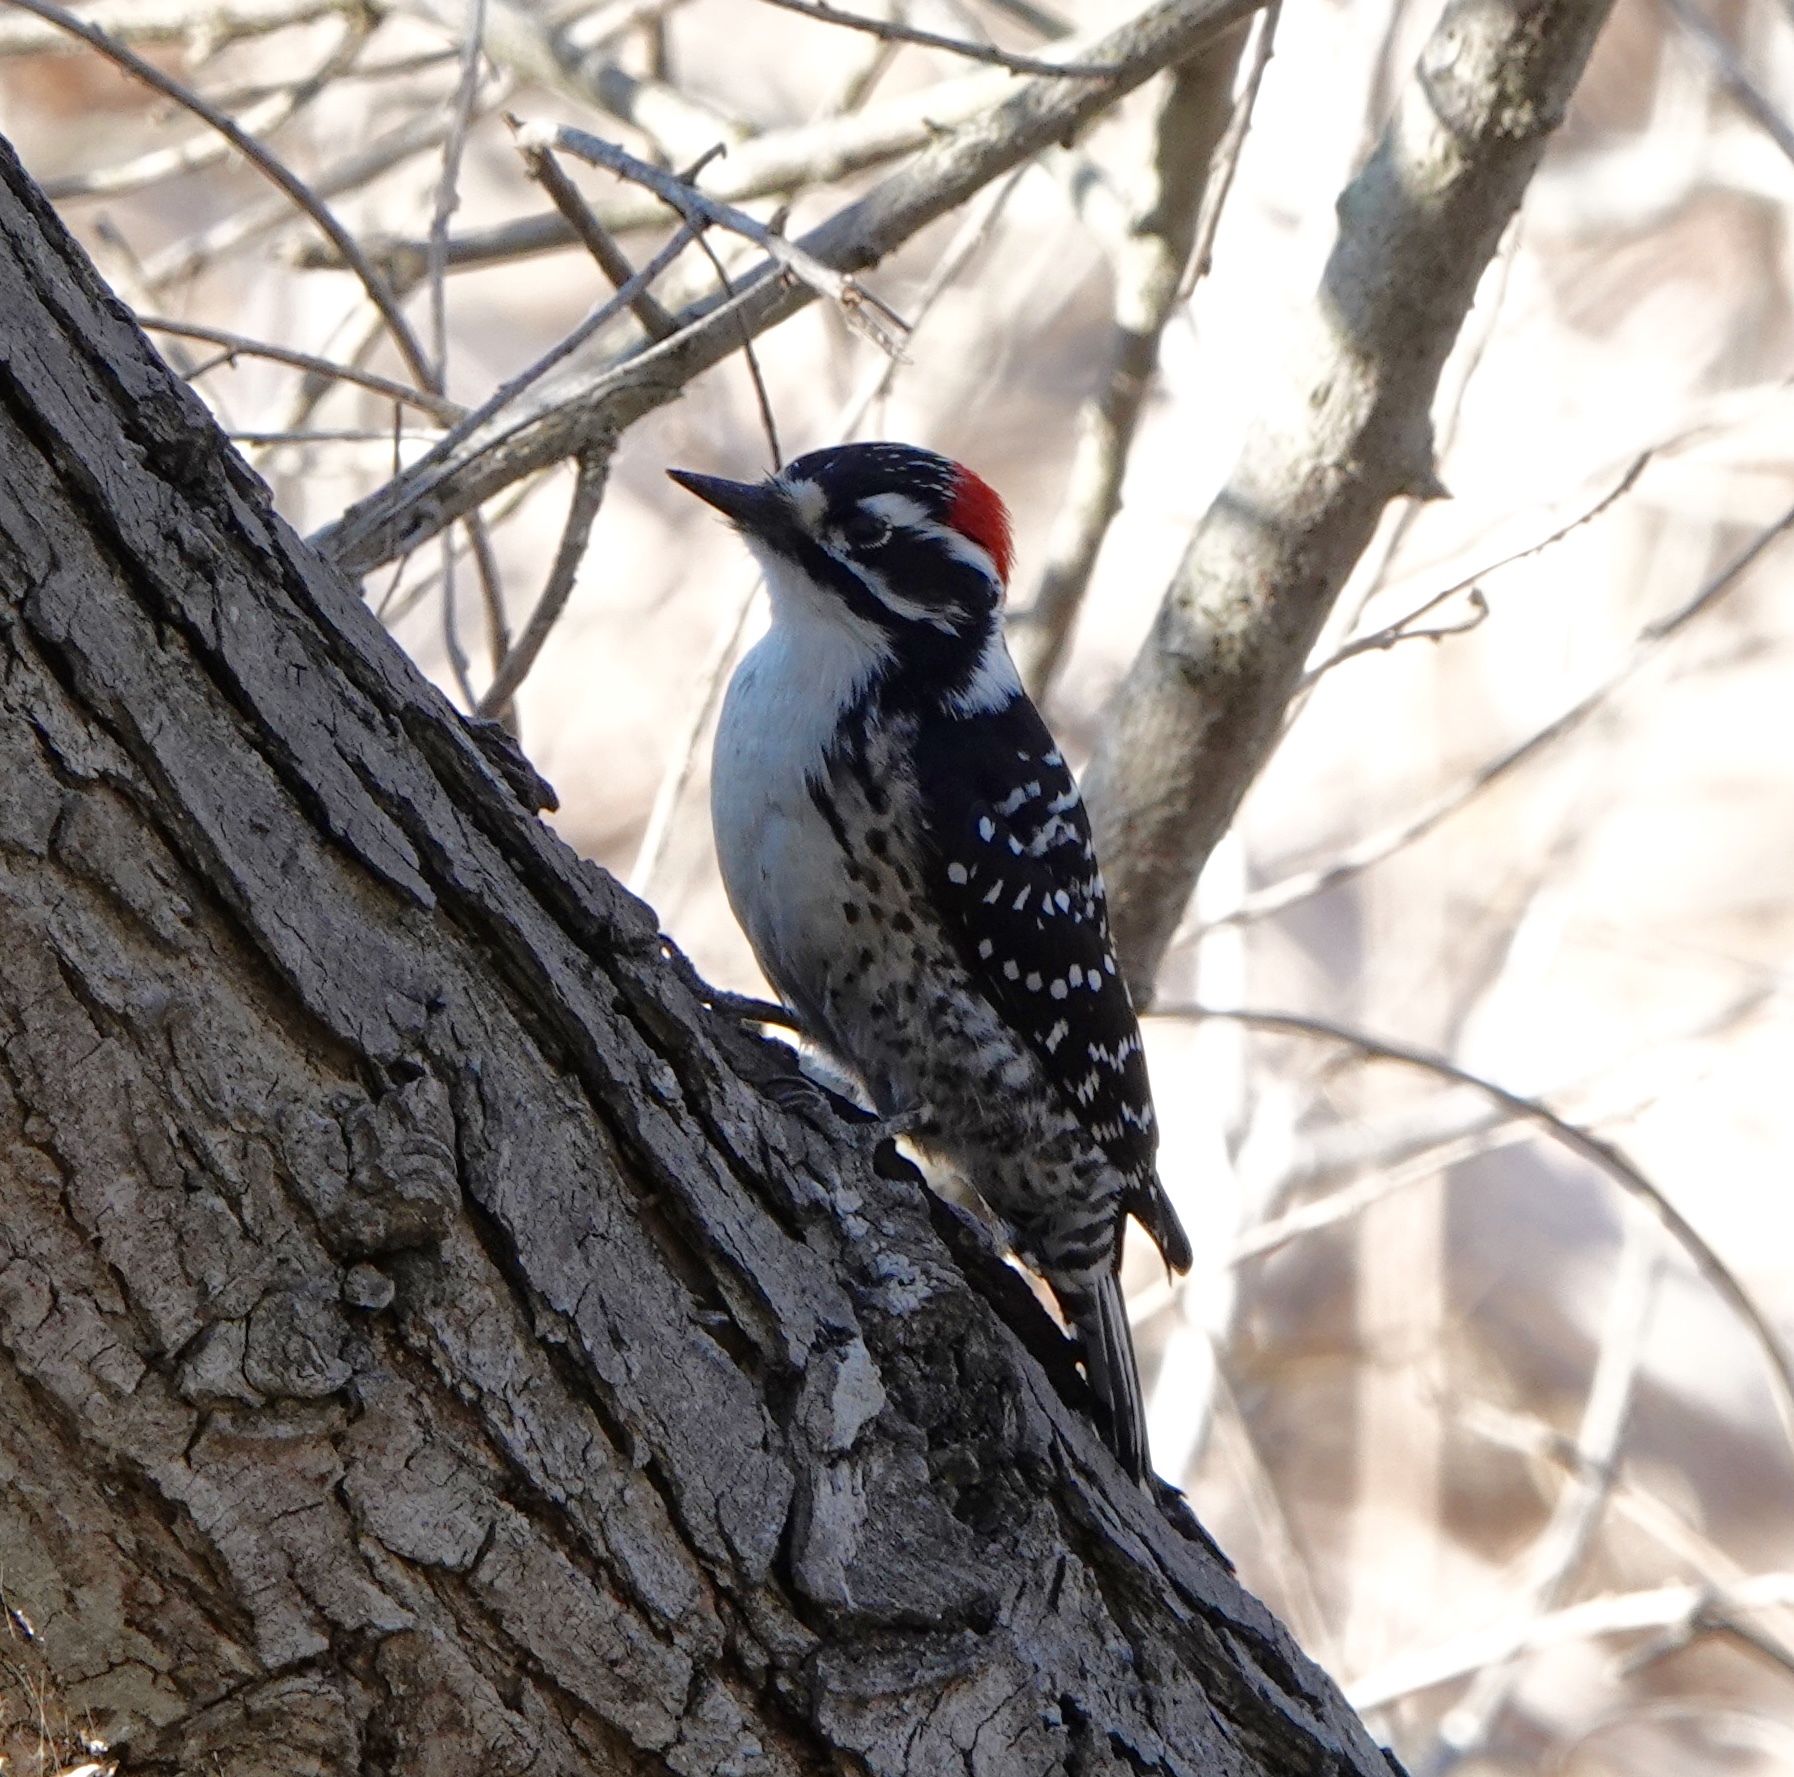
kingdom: Animalia
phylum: Chordata
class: Aves
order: Piciformes
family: Picidae
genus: Dryobates
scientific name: Dryobates nuttallii
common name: Nuttall's woodpecker
